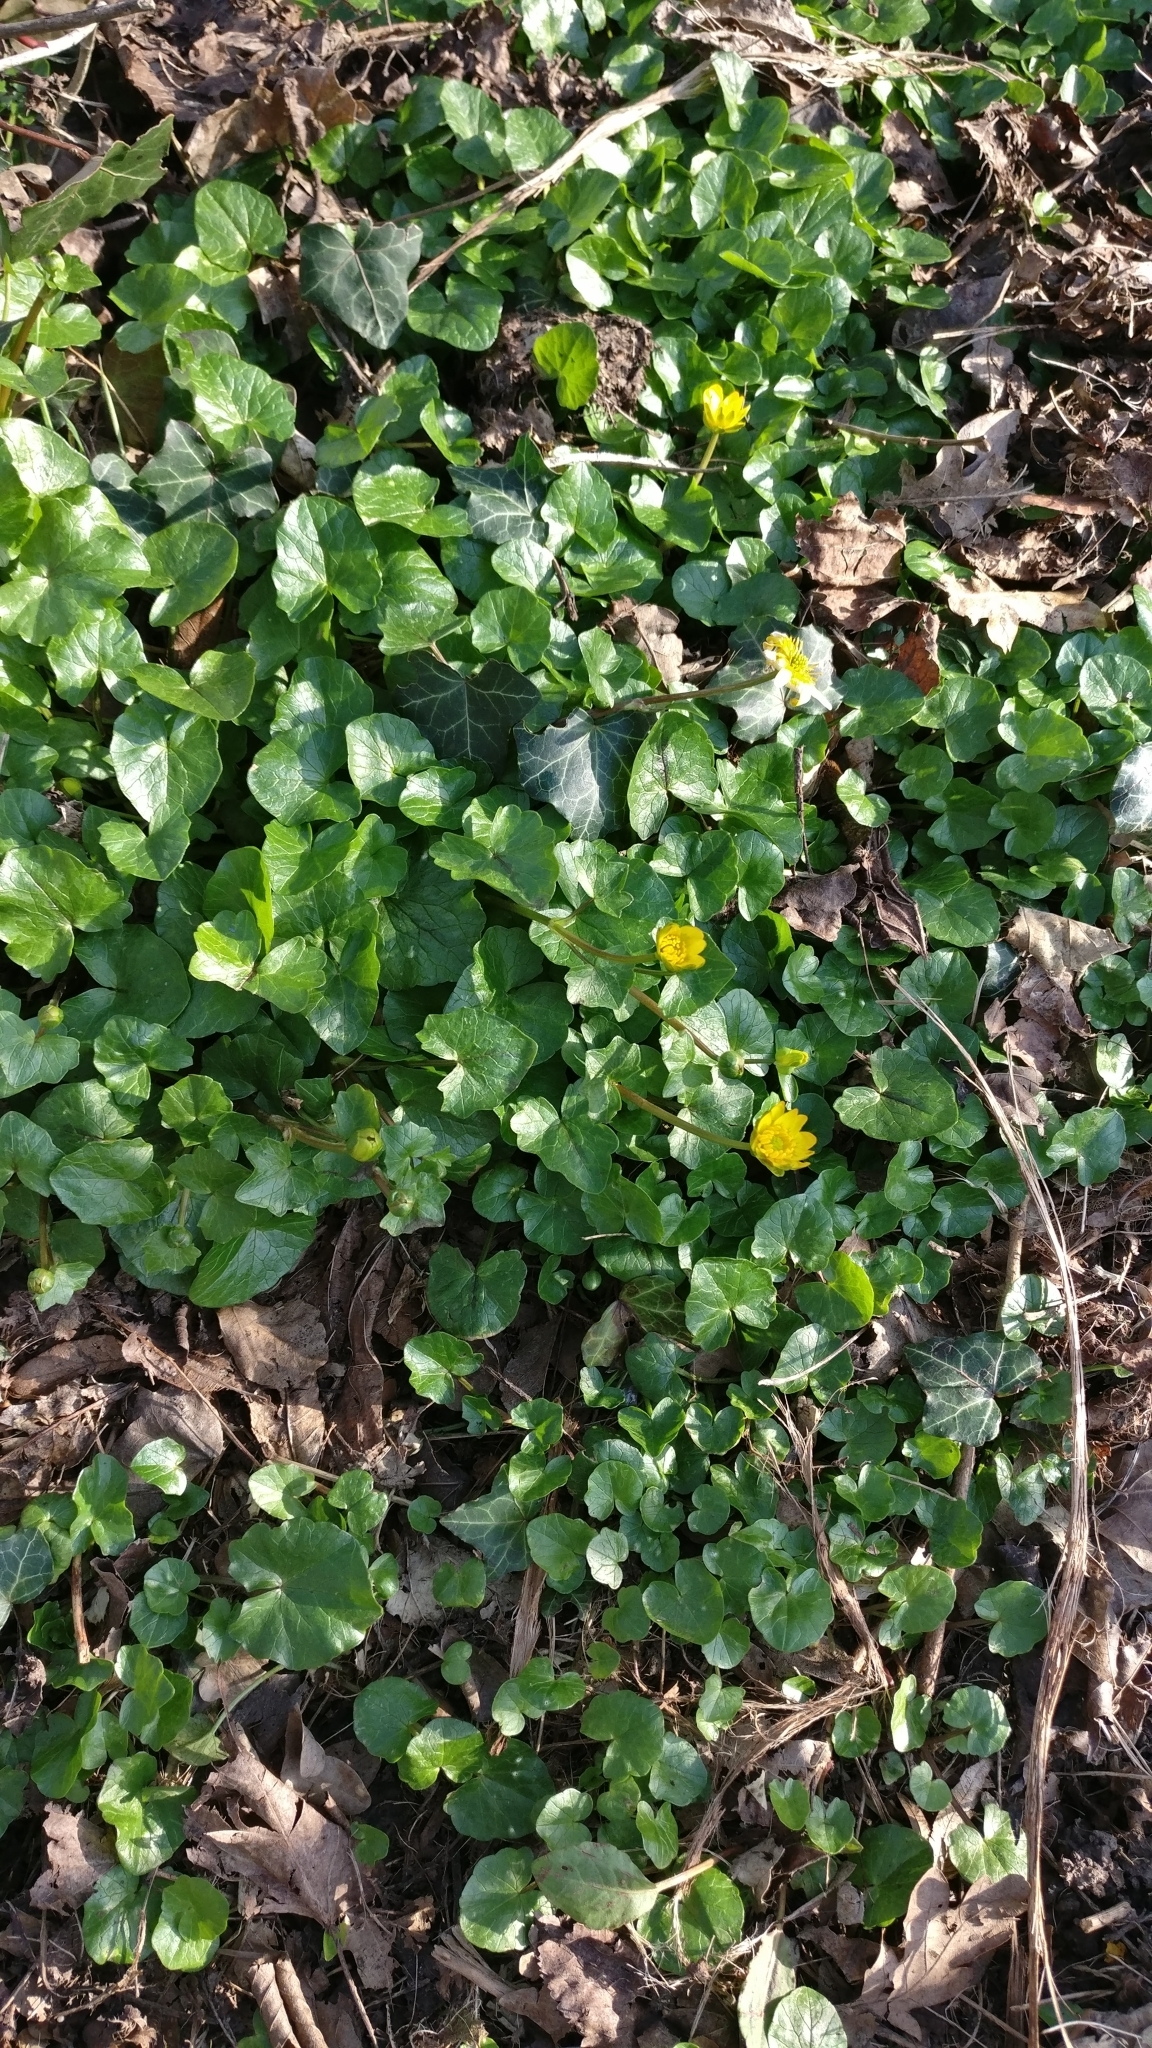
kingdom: Plantae
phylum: Tracheophyta
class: Magnoliopsida
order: Ranunculales
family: Ranunculaceae
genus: Ficaria
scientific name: Ficaria verna
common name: Lesser celandine
